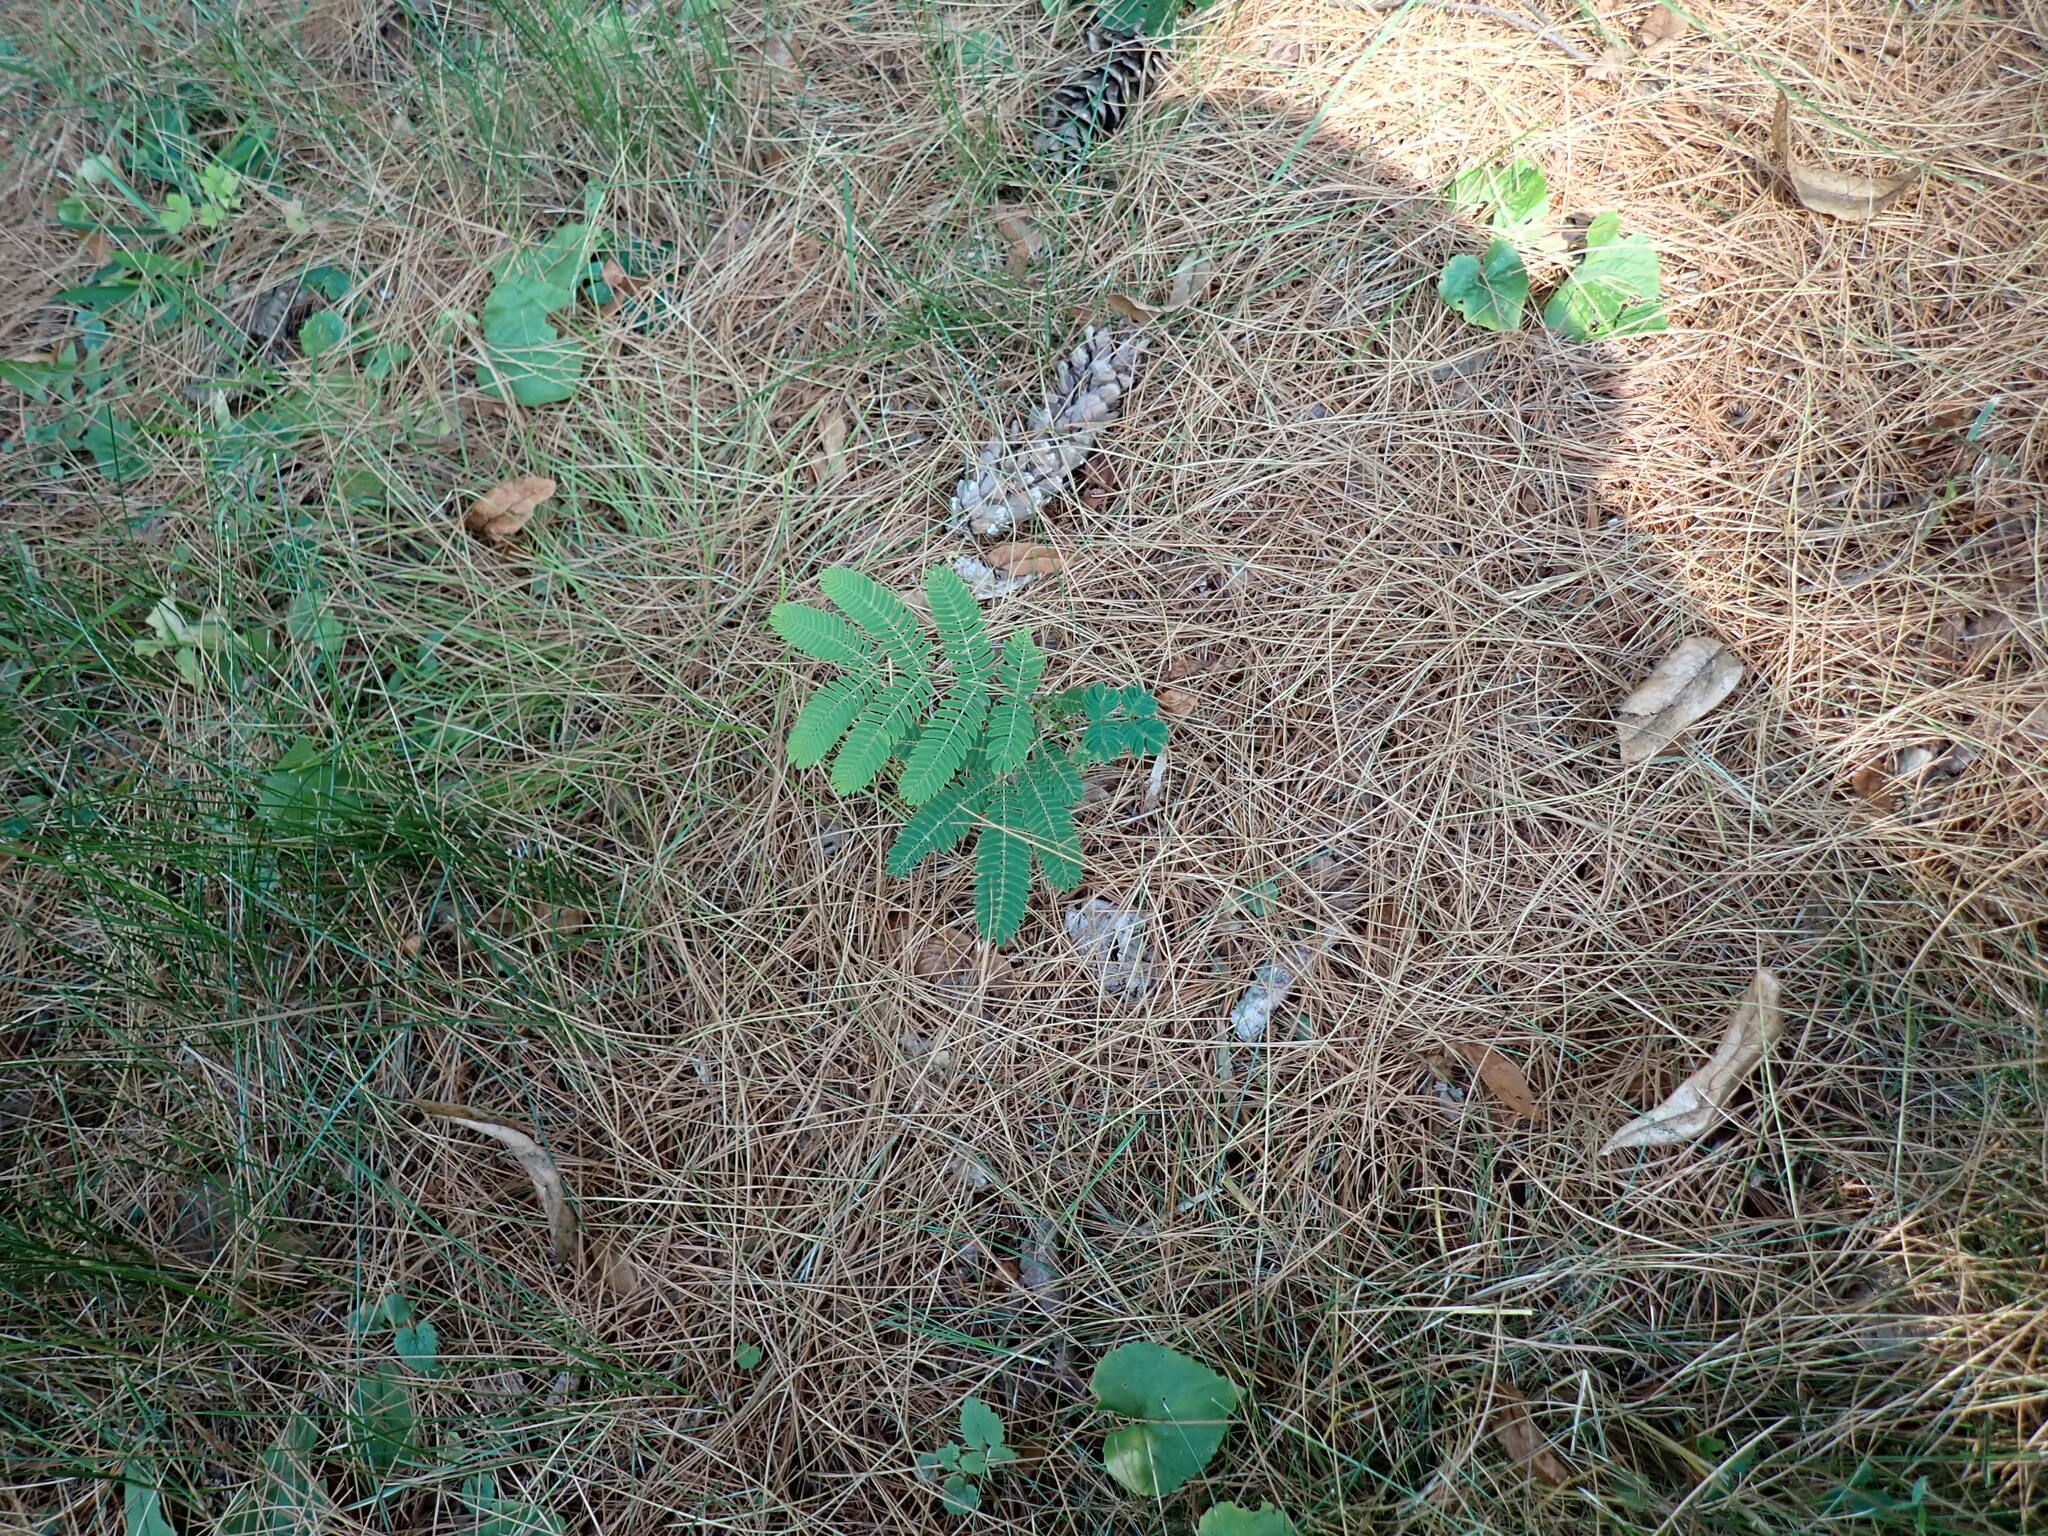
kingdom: Plantae
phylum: Tracheophyta
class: Magnoliopsida
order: Fabales
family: Fabaceae
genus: Albizia
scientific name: Albizia julibrissin
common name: Silktree
